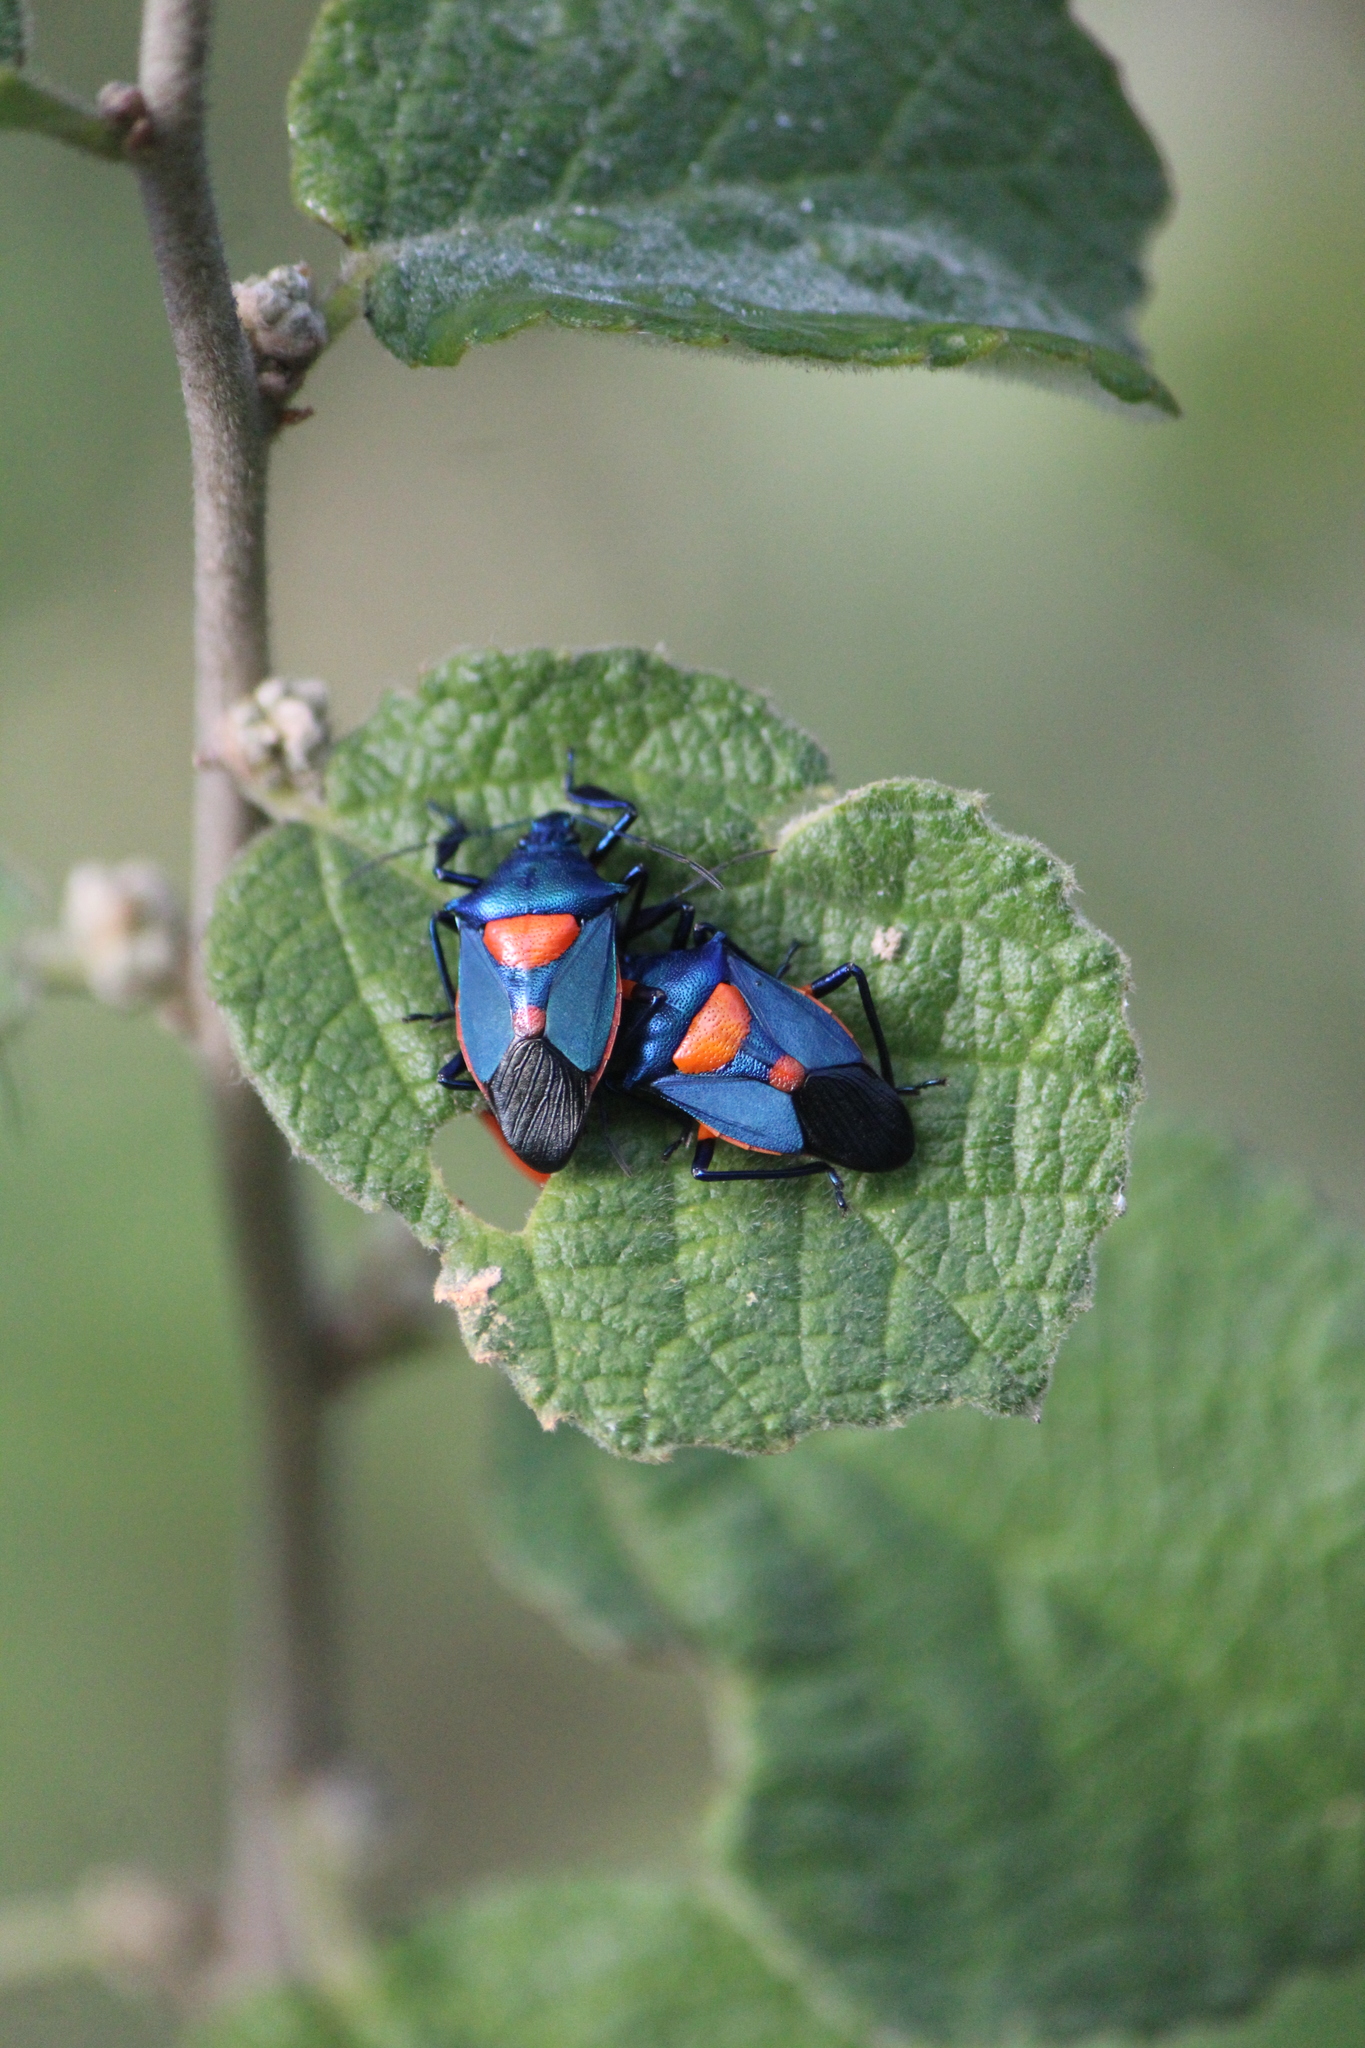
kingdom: Animalia
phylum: Arthropoda
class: Insecta
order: Hemiptera
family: Pentatomidae
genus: Euthyrhynchus
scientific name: Euthyrhynchus floridanus
